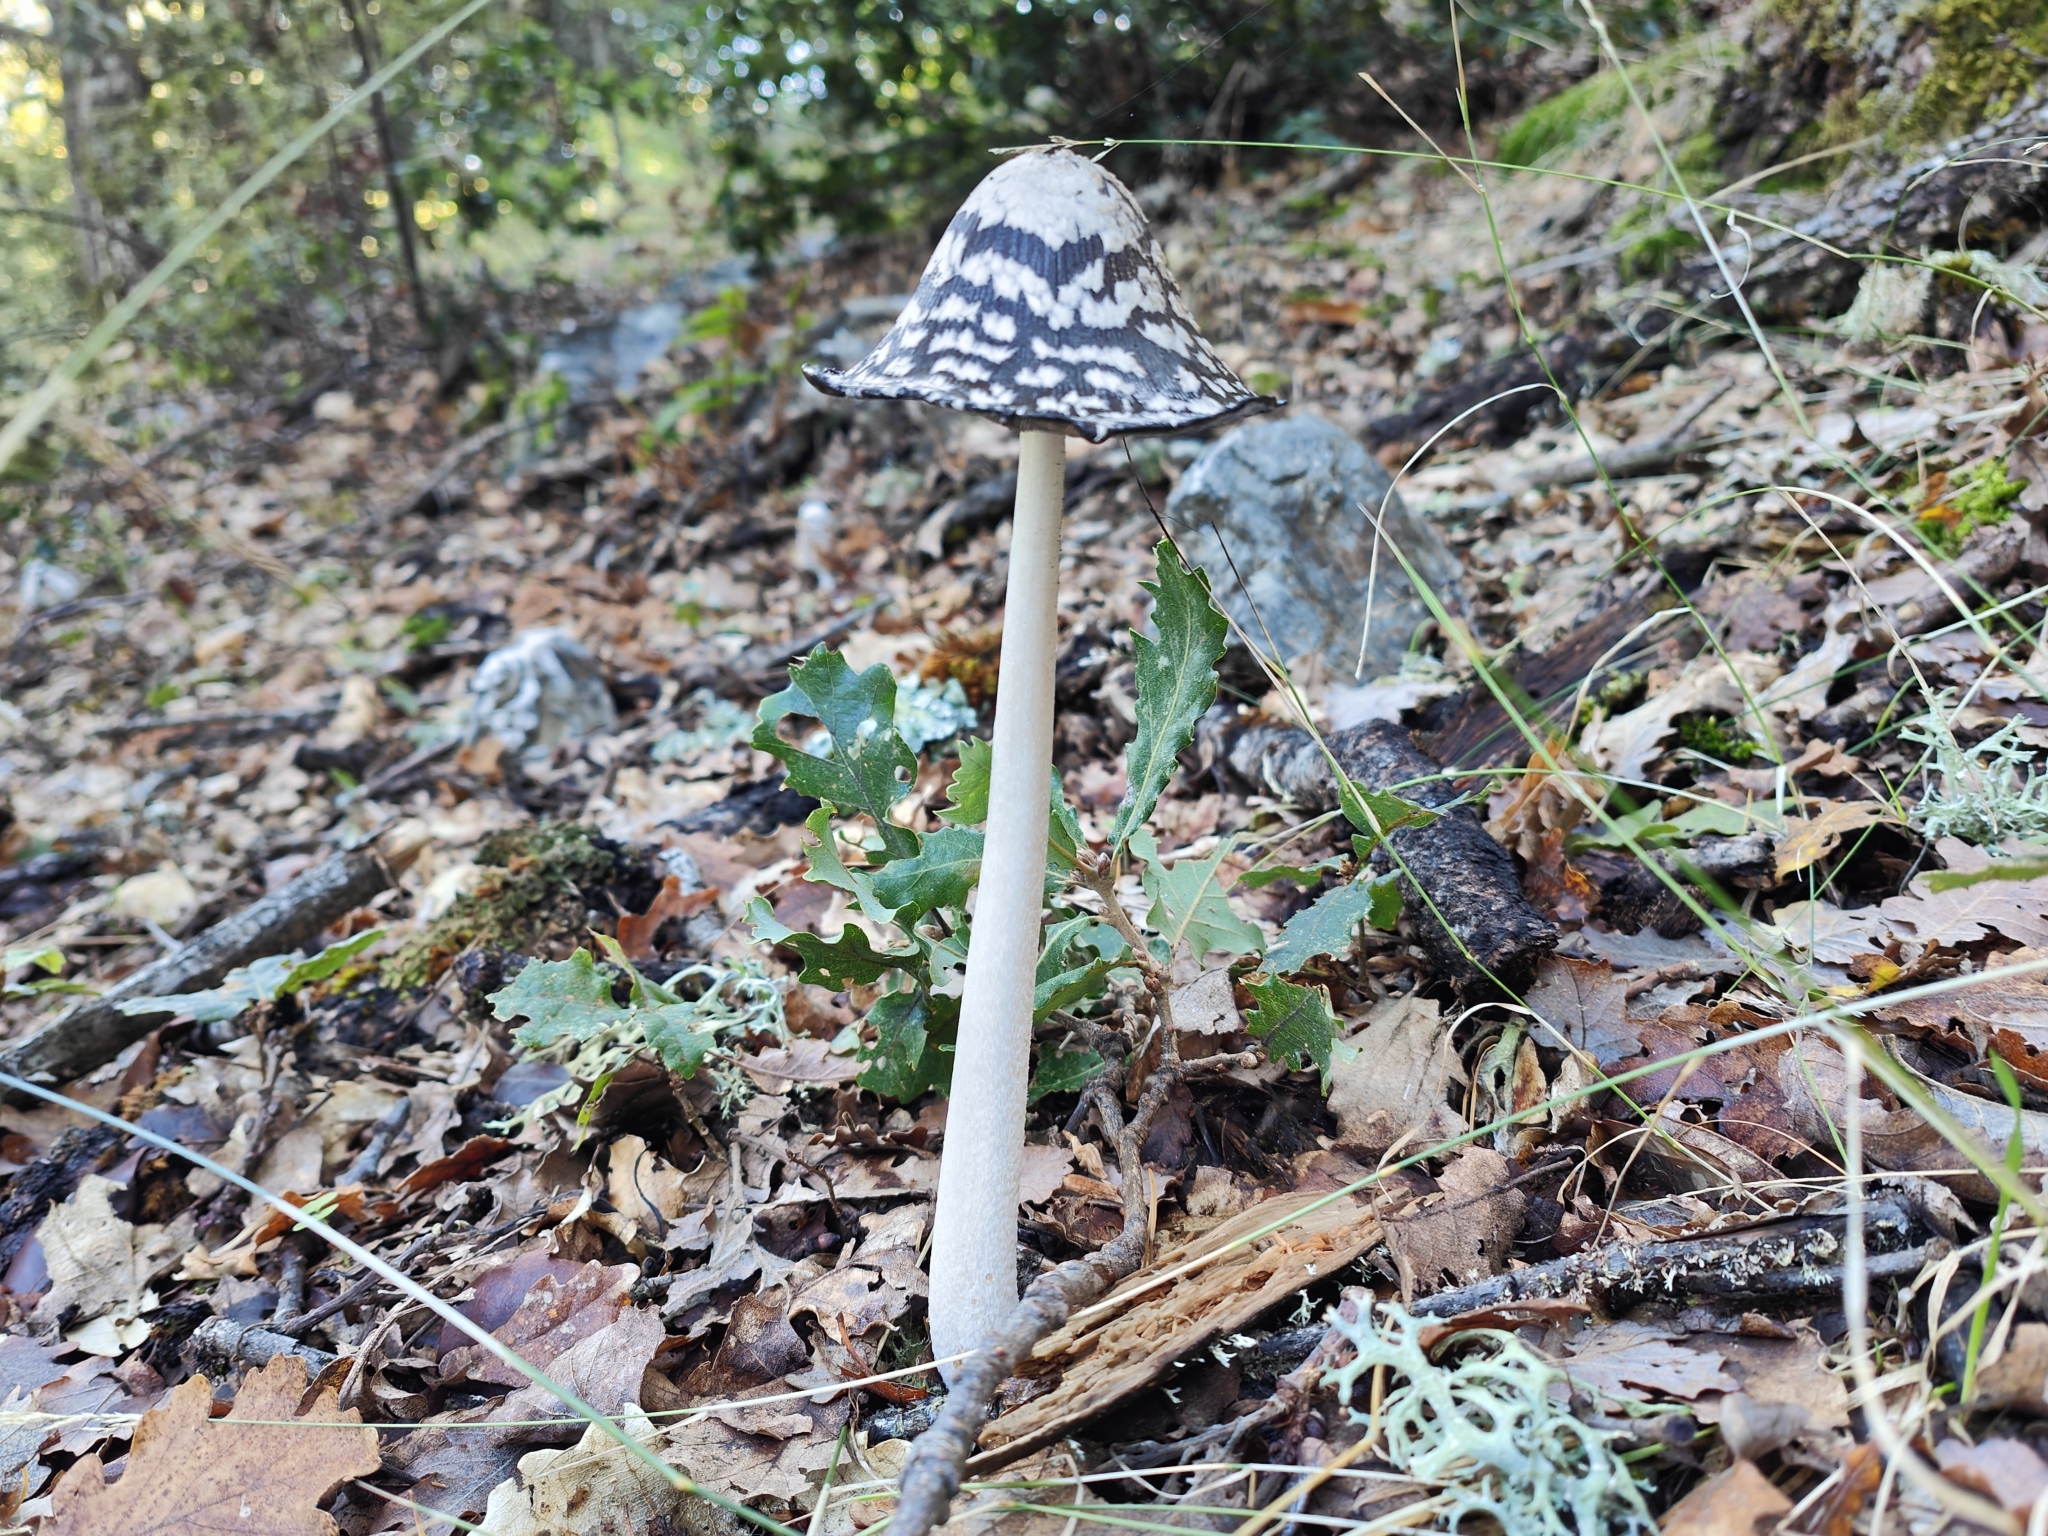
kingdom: Fungi
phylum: Basidiomycota
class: Agaricomycetes
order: Agaricales
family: Psathyrellaceae
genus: Coprinopsis
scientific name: Coprinopsis picacea
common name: Magpie inkcap
